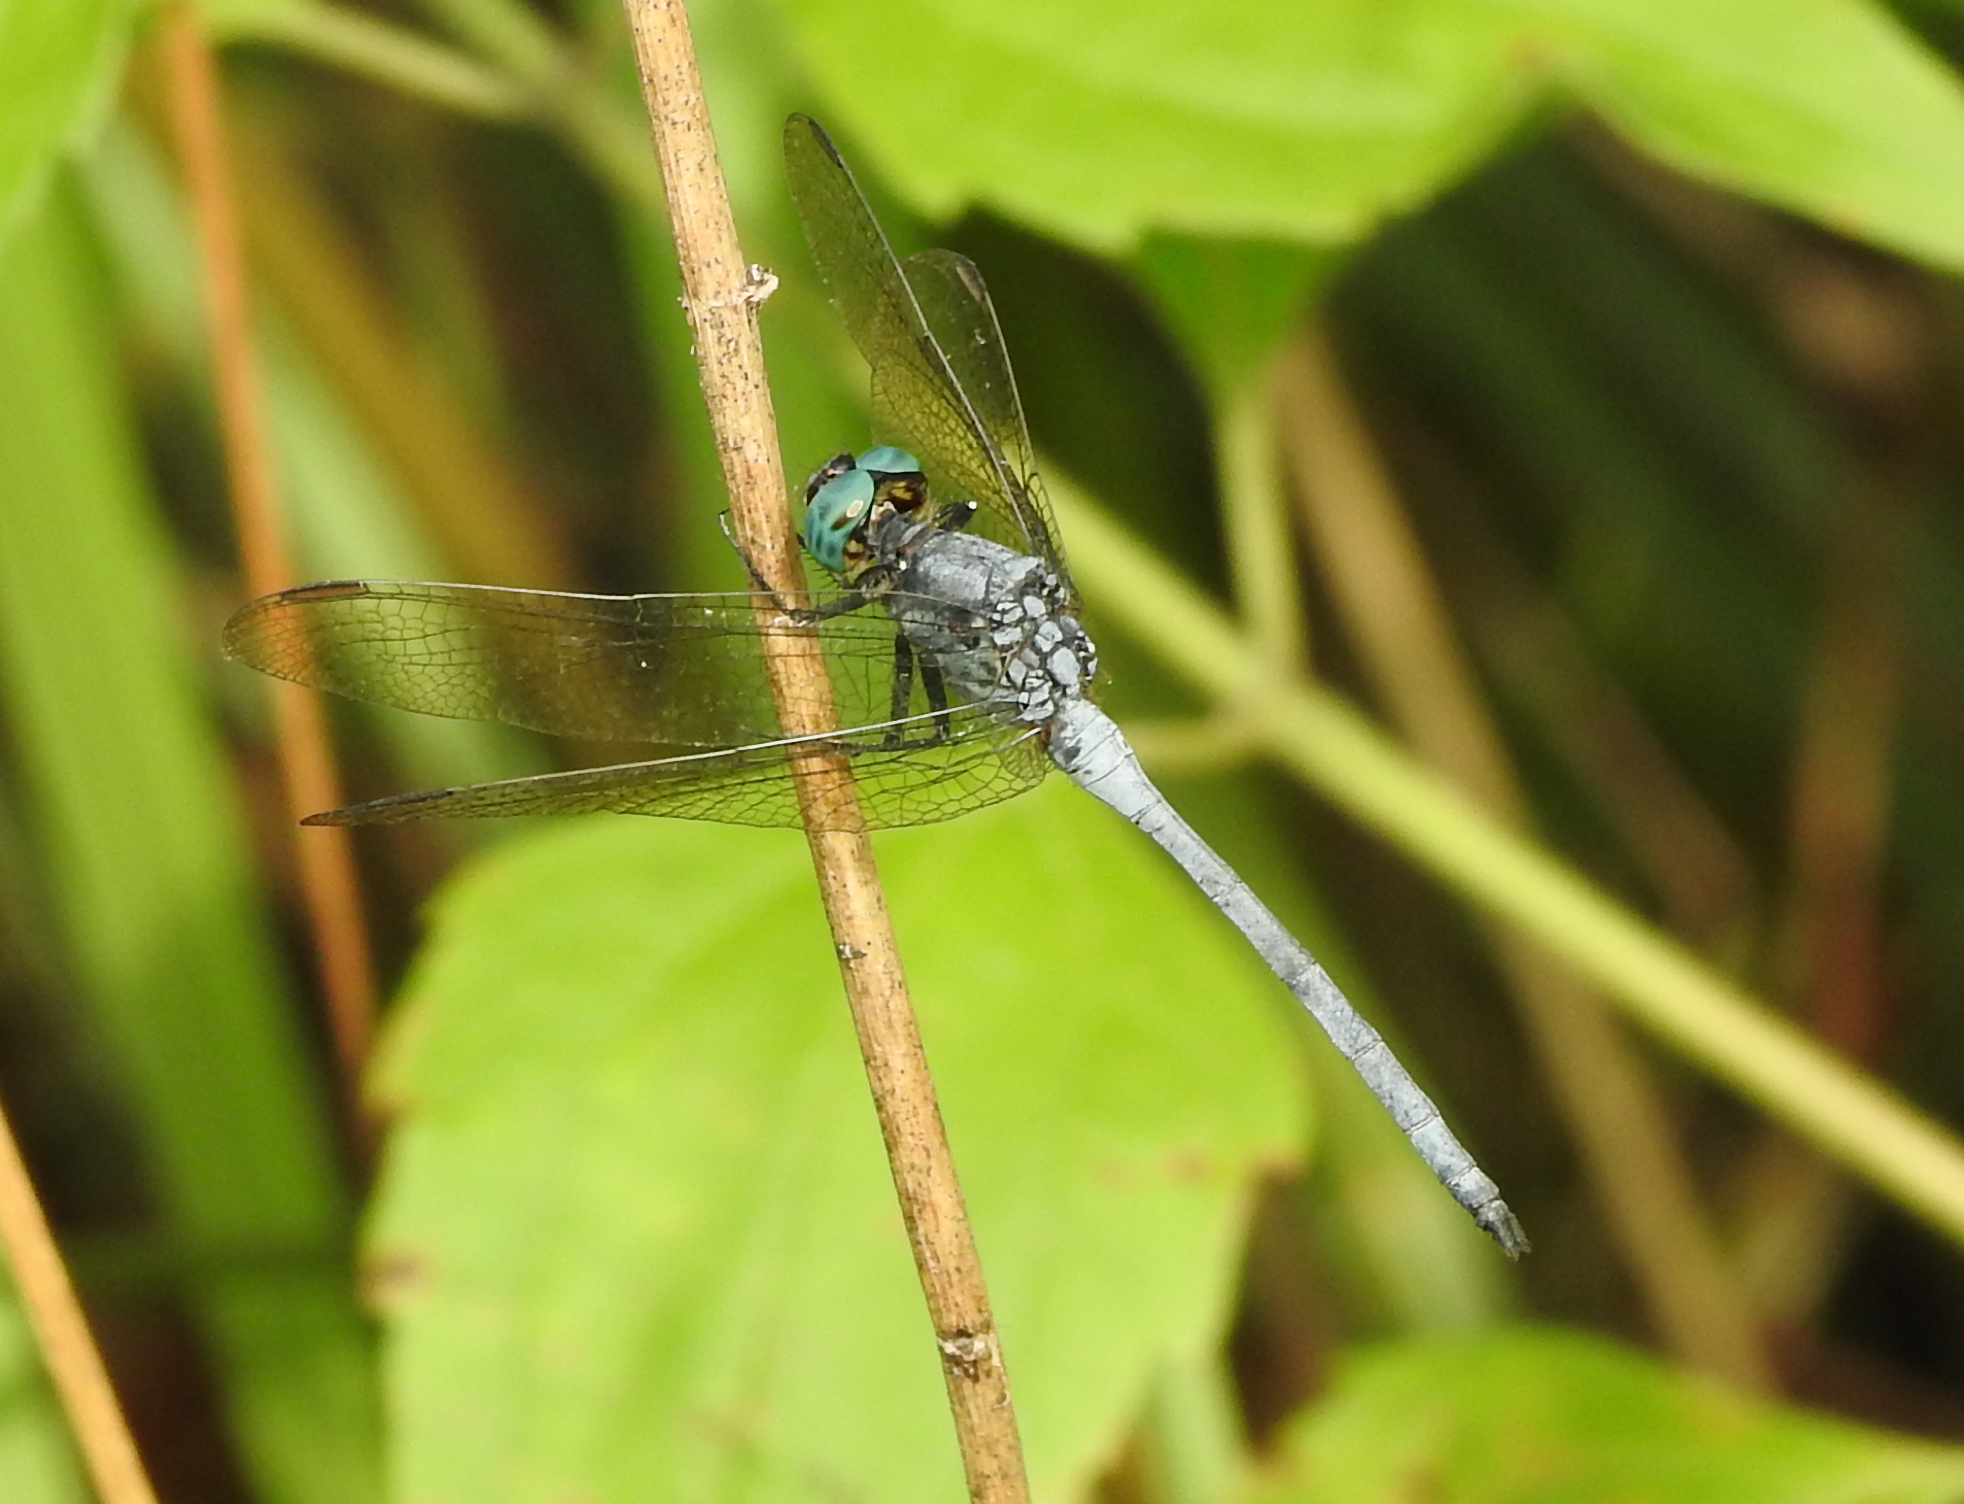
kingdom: Animalia
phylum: Arthropoda
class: Insecta
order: Odonata
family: Libellulidae
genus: Orthetrum
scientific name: Orthetrum luzonicum
